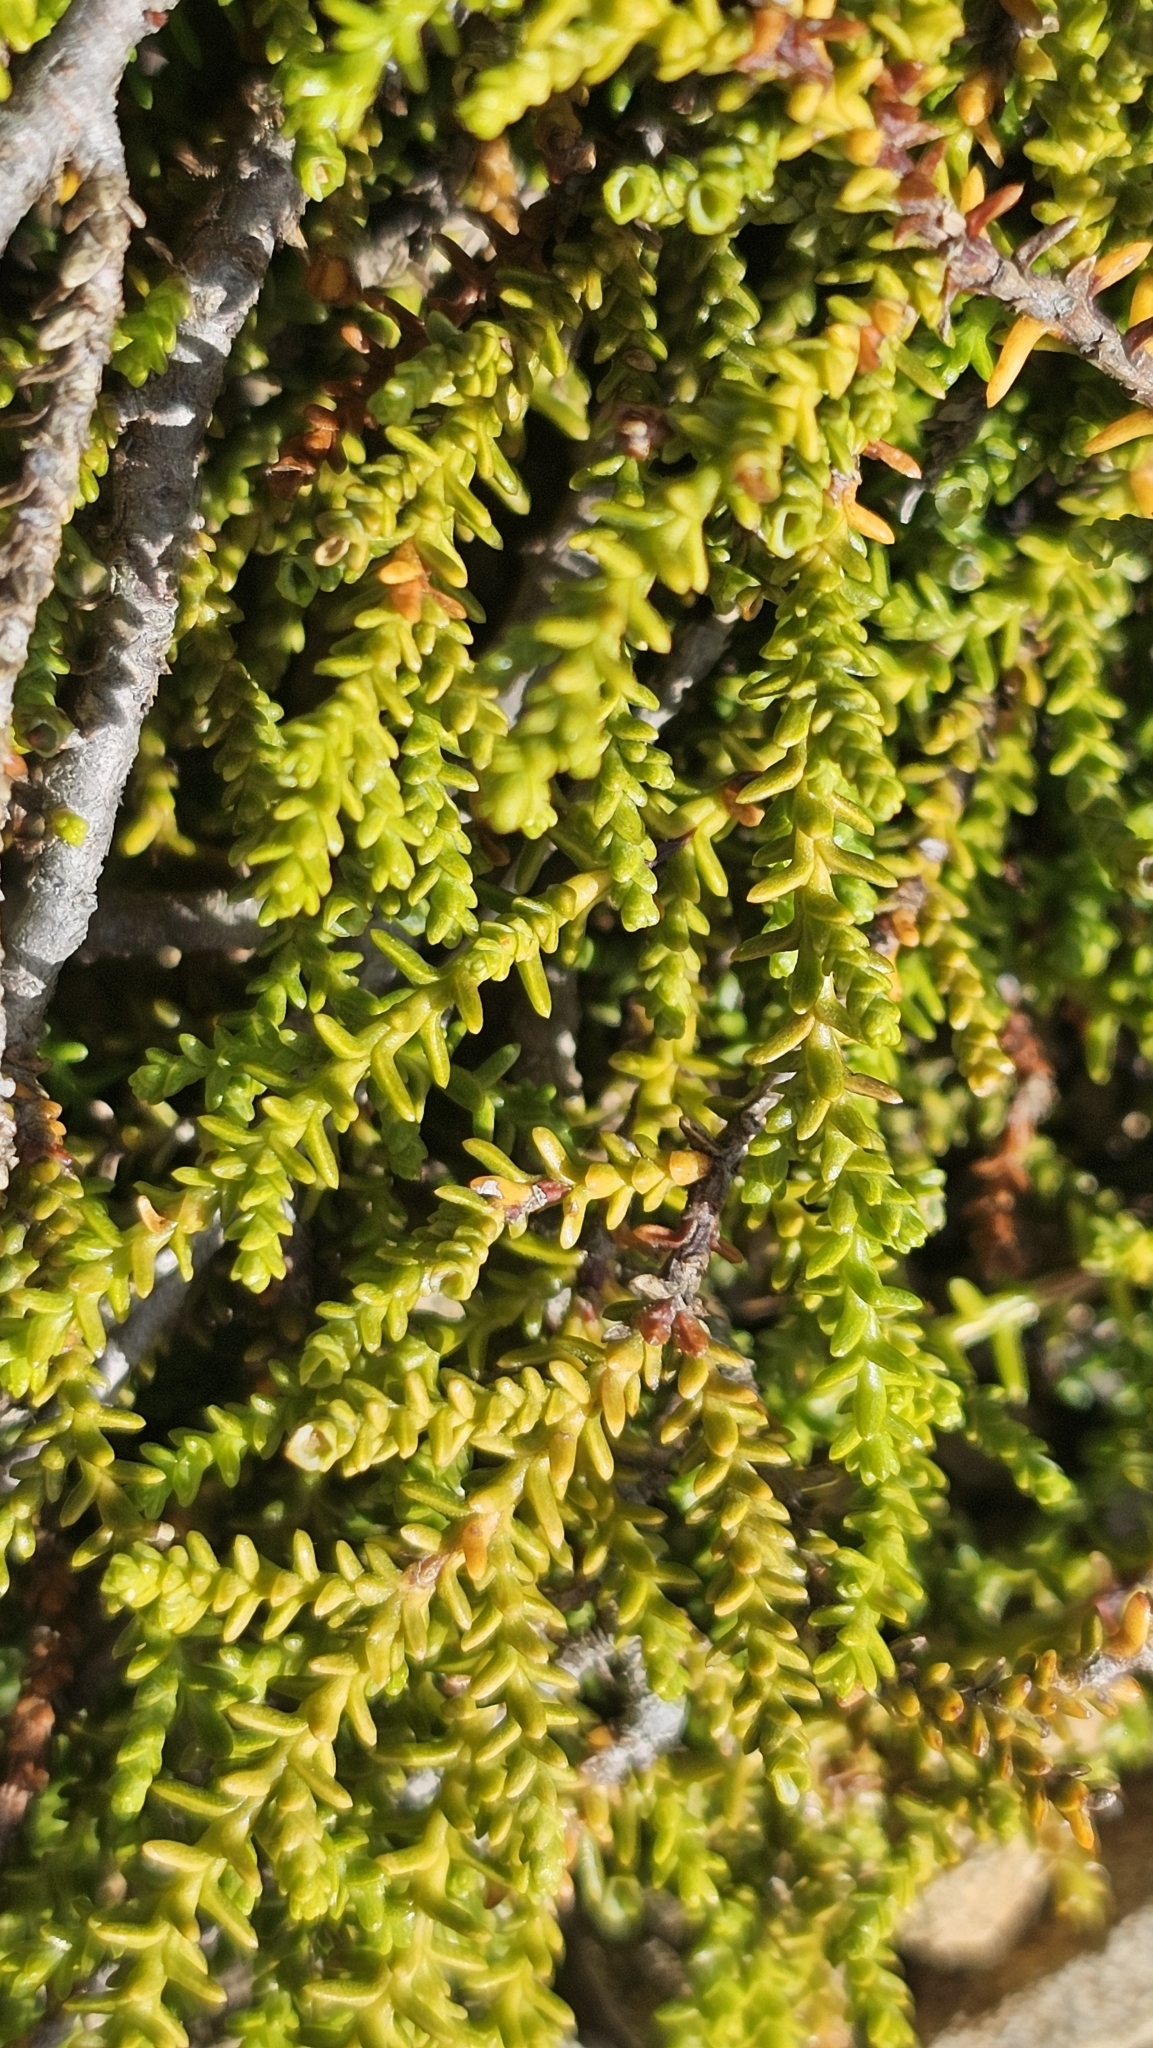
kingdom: Plantae
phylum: Tracheophyta
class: Pinopsida
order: Pinales
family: Podocarpaceae
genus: Lepidothamnus
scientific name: Lepidothamnus laxifolius
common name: Pygmy pine
